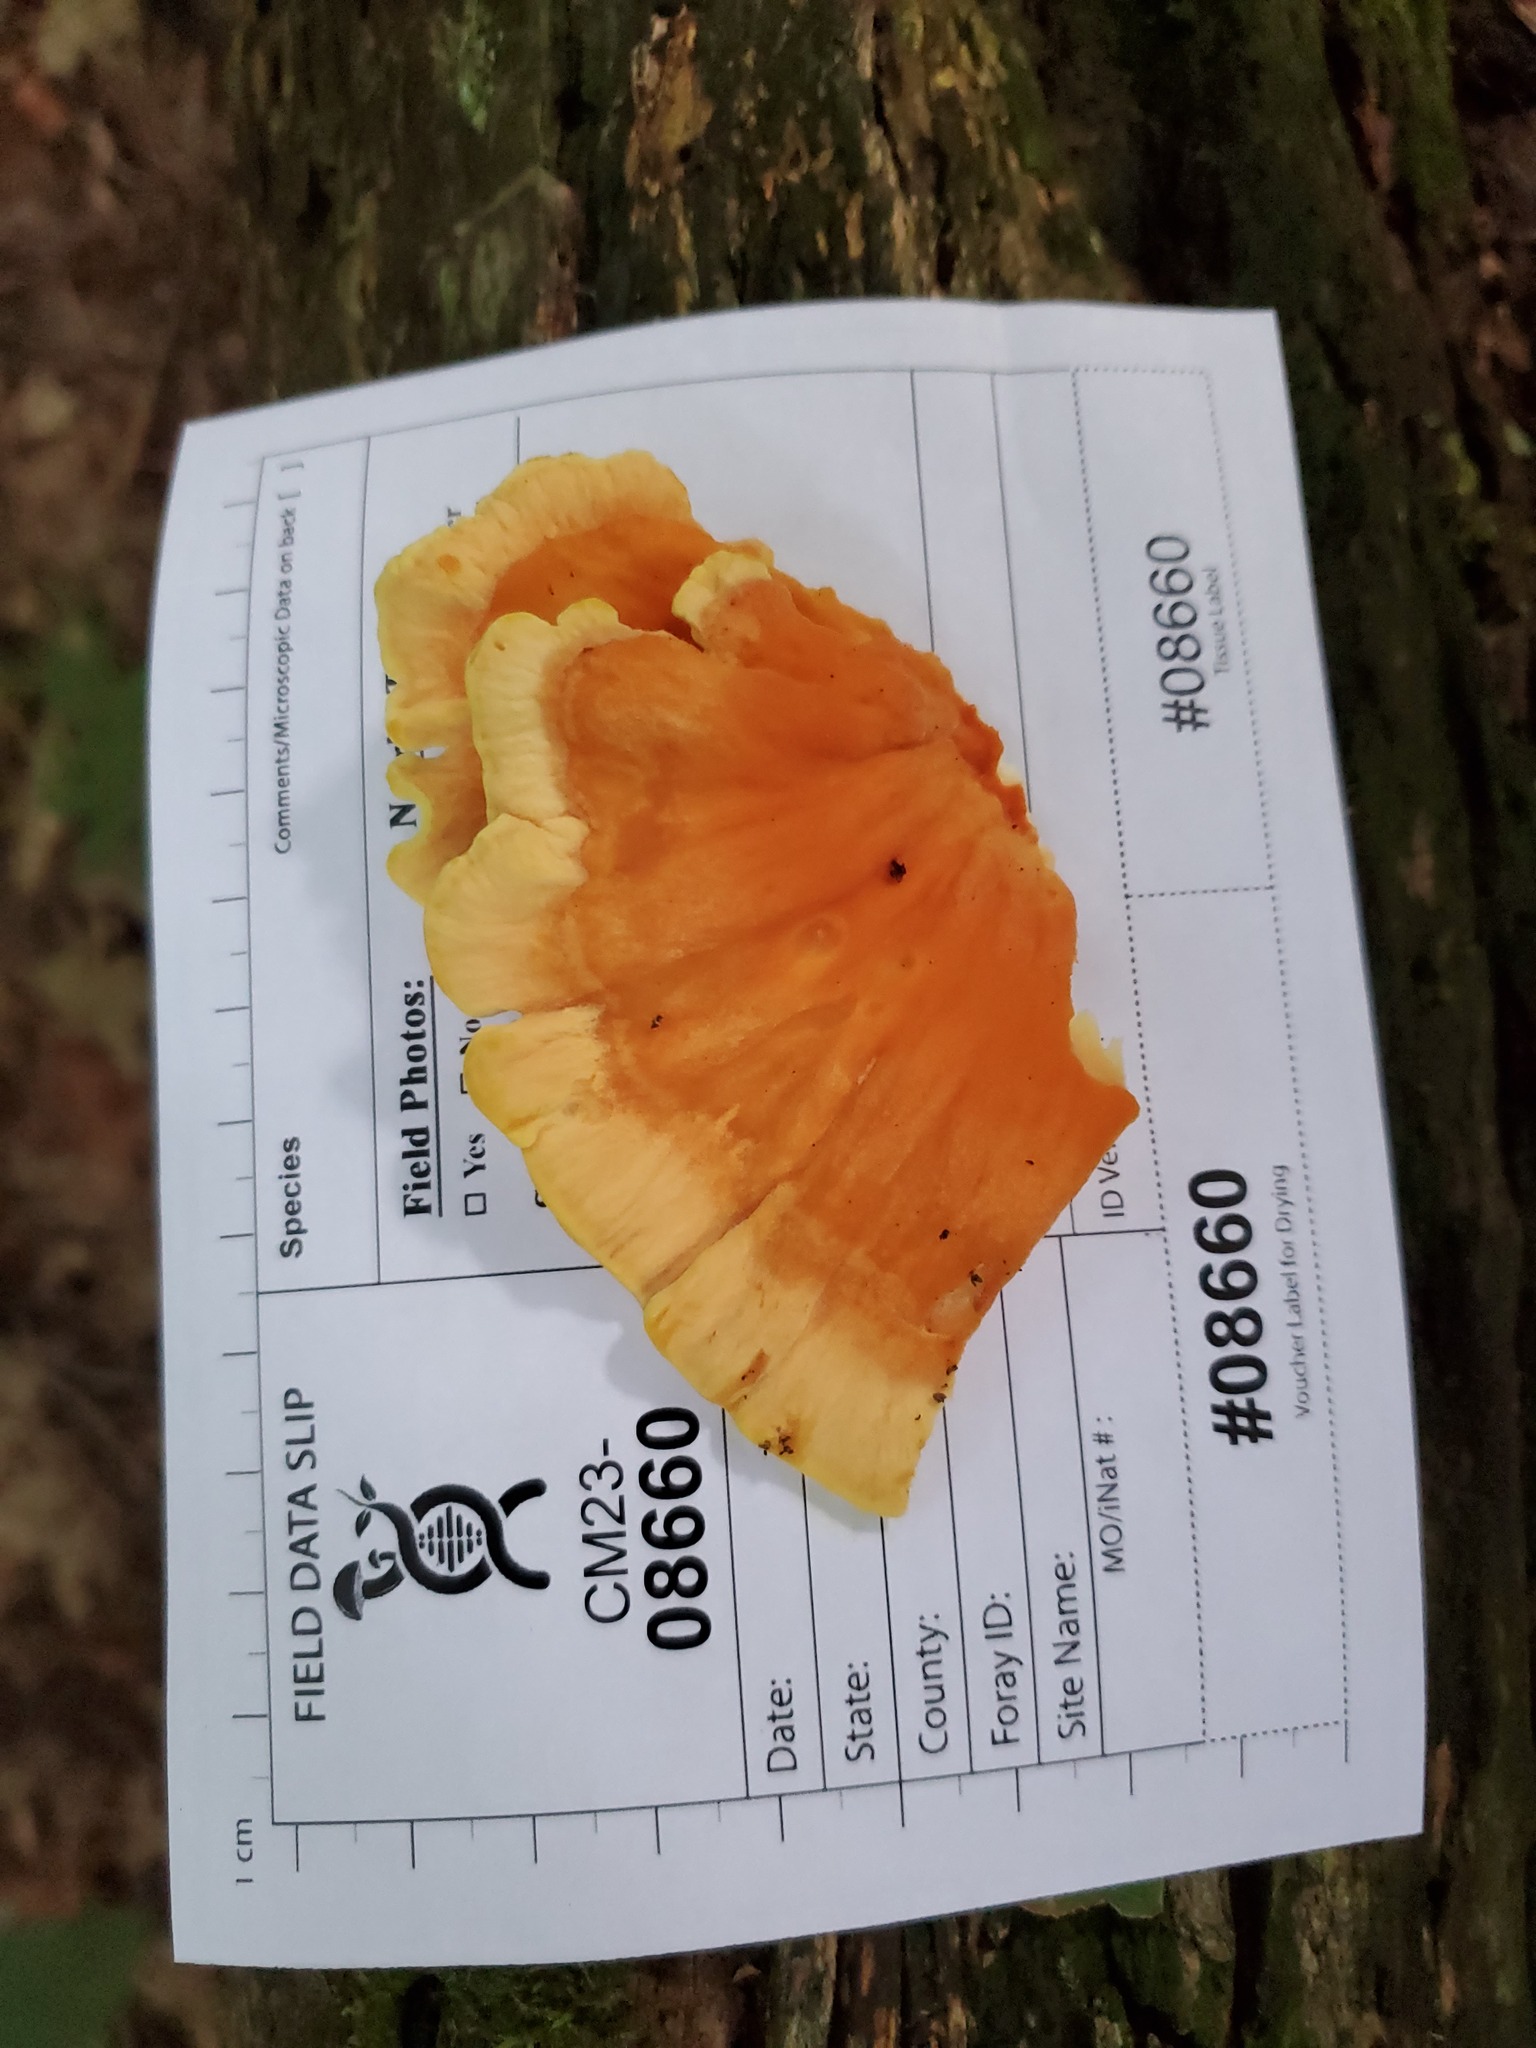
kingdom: Fungi
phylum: Basidiomycota
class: Agaricomycetes
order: Polyporales
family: Laetiporaceae
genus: Laetiporus
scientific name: Laetiporus sulphureus
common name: Chicken of the woods
